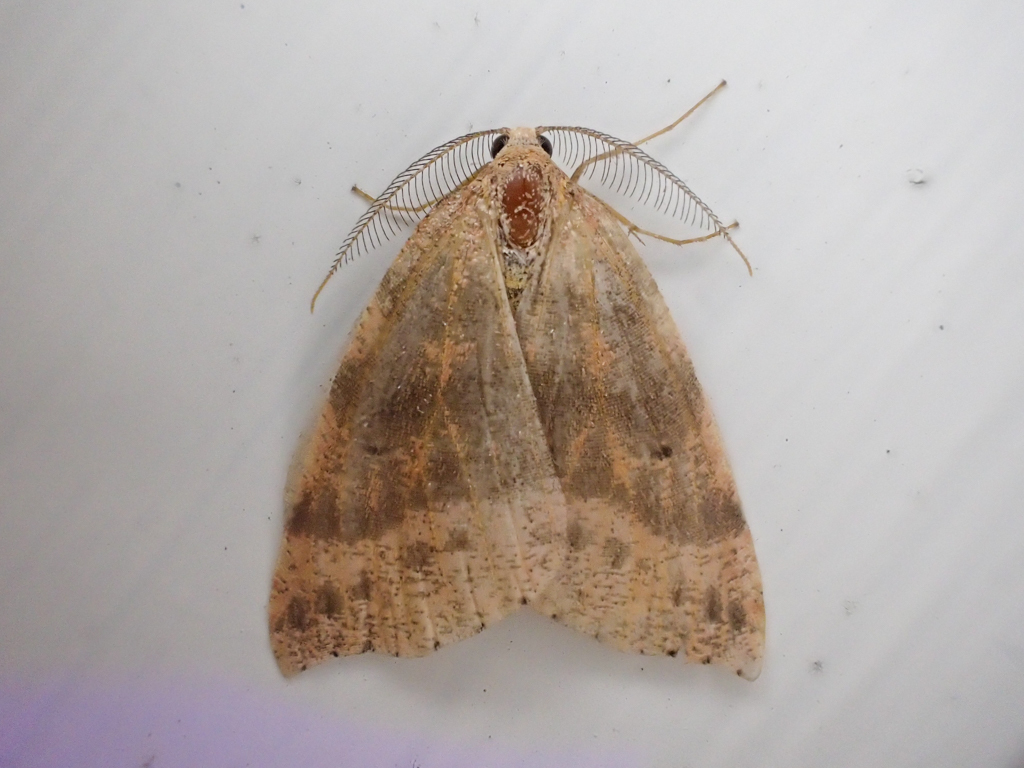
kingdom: Animalia
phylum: Arthropoda
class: Insecta
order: Lepidoptera
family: Geometridae
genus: Drepanulatrix
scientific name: Drepanulatrix falcataria
